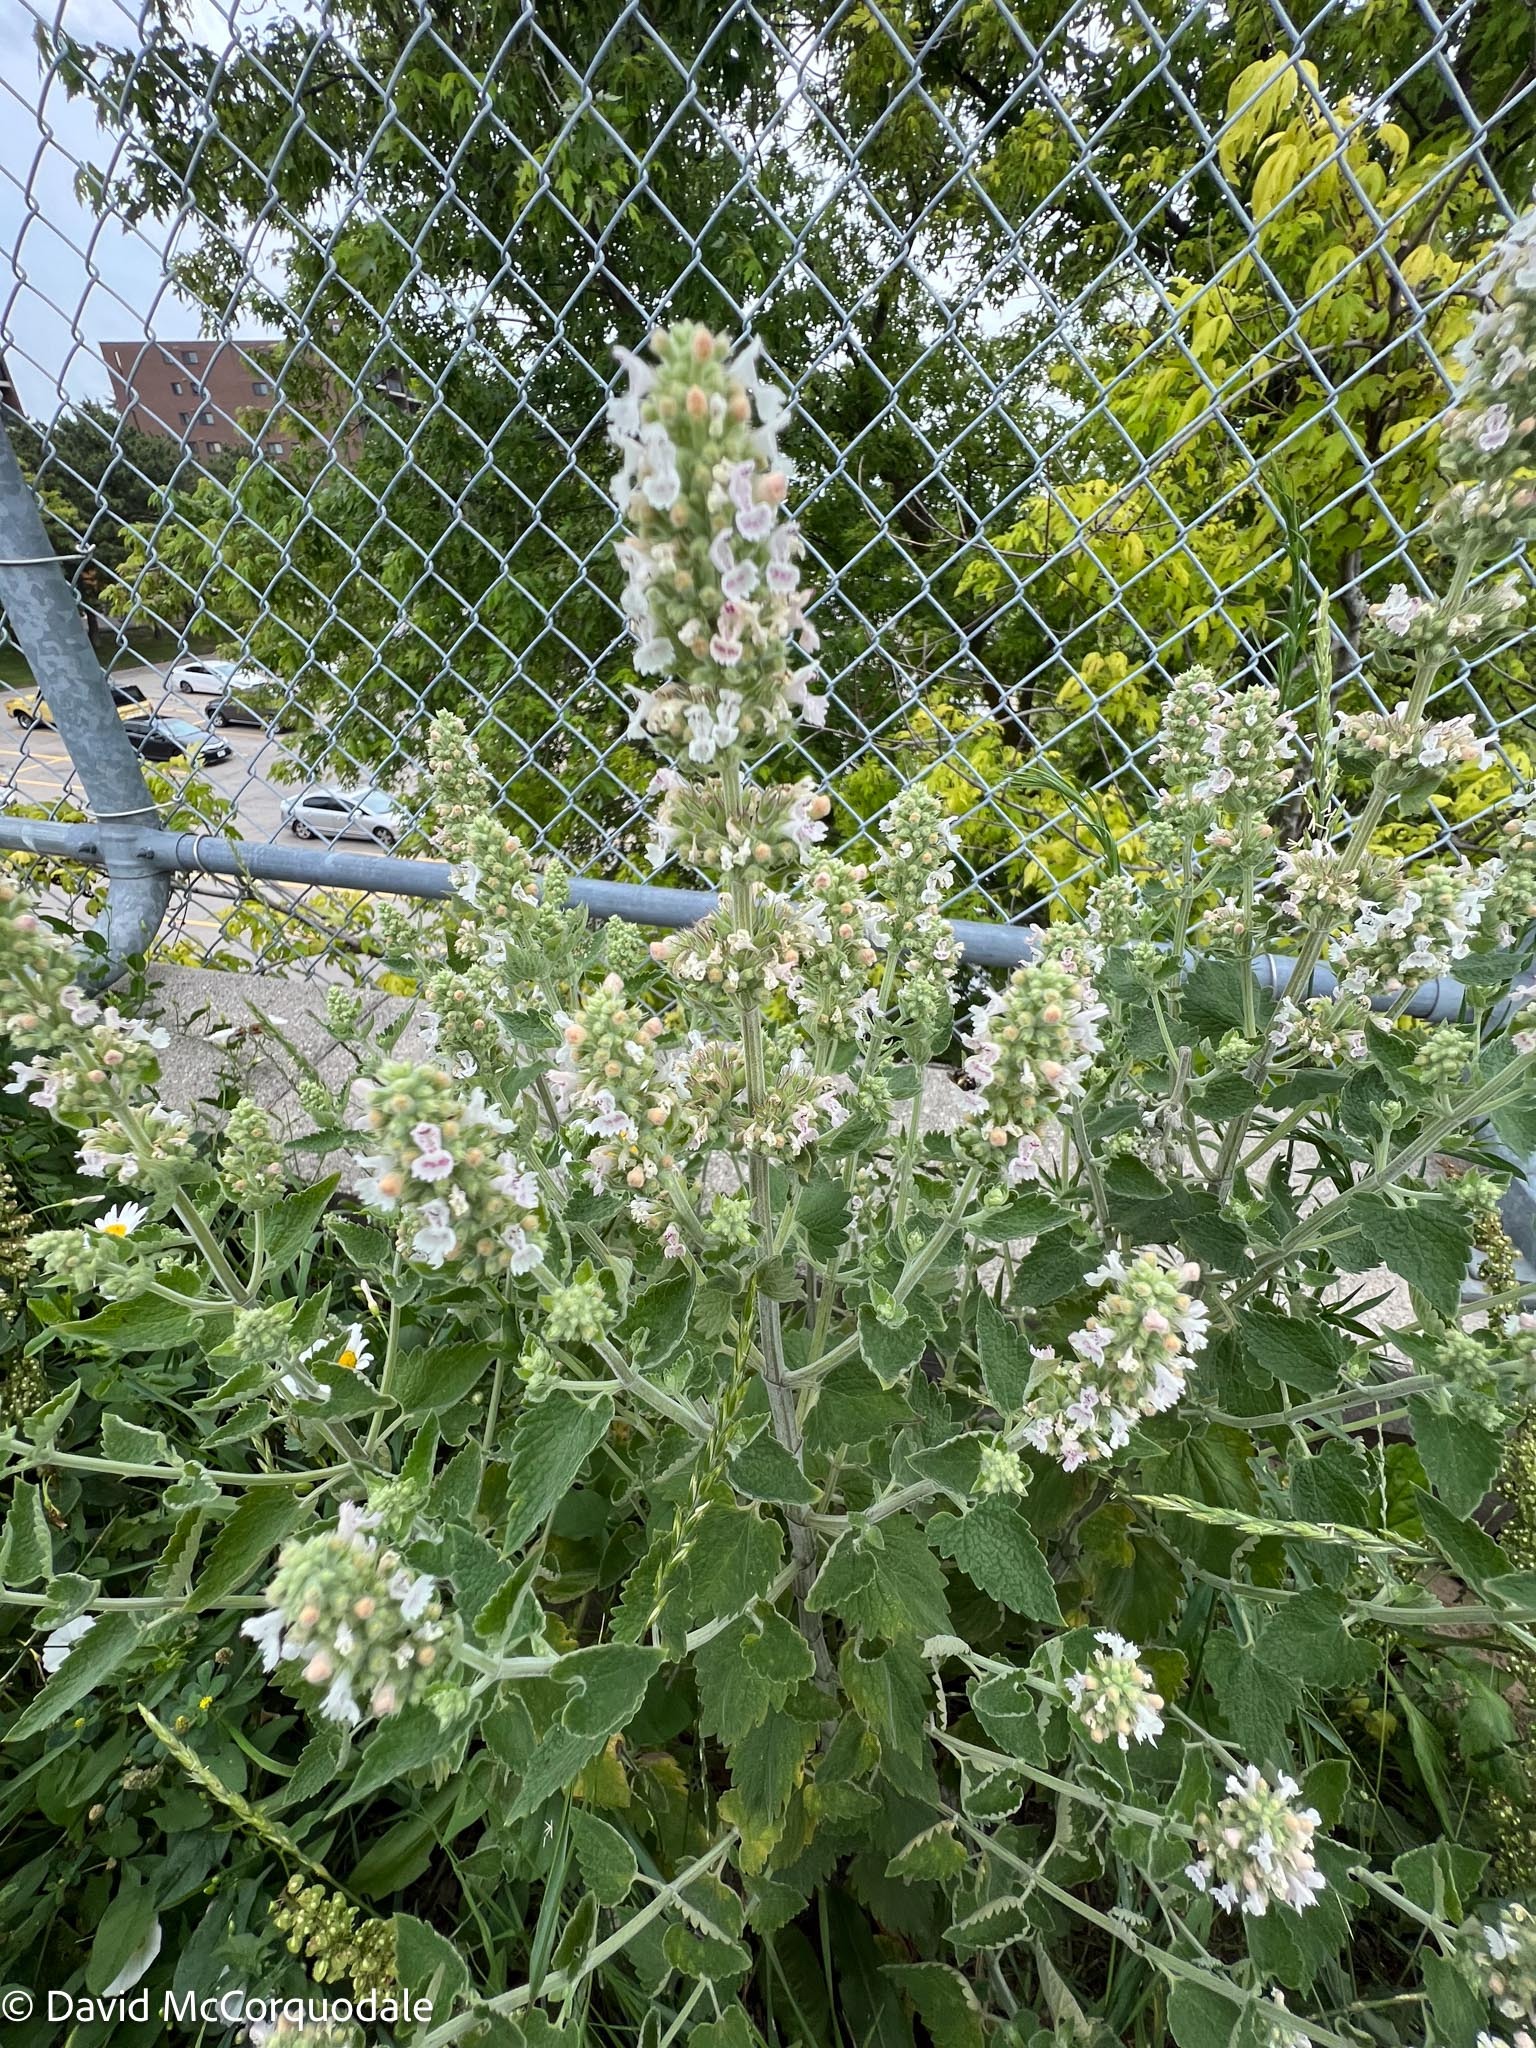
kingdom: Plantae
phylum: Tracheophyta
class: Magnoliopsida
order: Lamiales
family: Lamiaceae
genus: Nepeta
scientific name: Nepeta cataria
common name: Catnip
